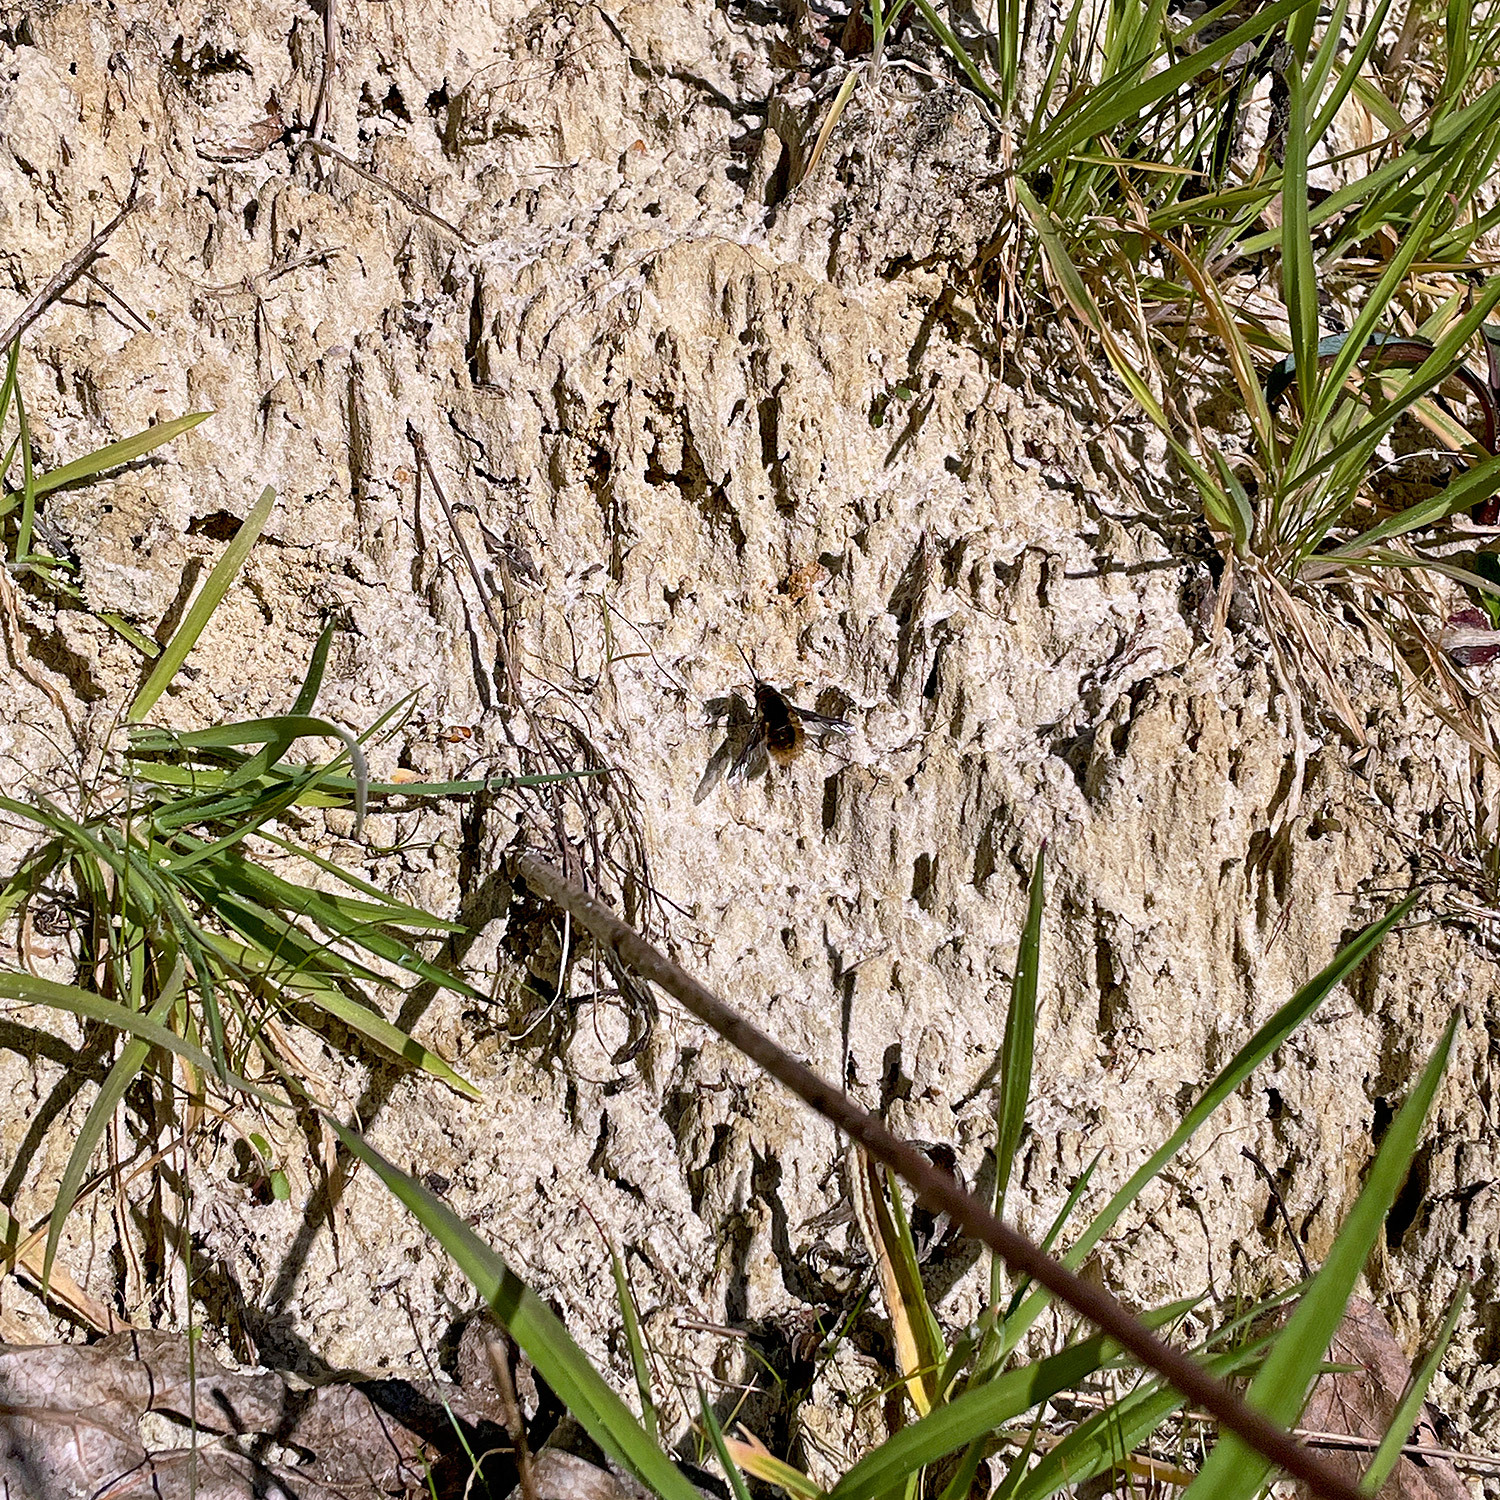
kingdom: Animalia
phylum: Arthropoda
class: Insecta
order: Diptera
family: Bombyliidae
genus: Bombylius
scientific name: Bombylius major
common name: Bee fly
